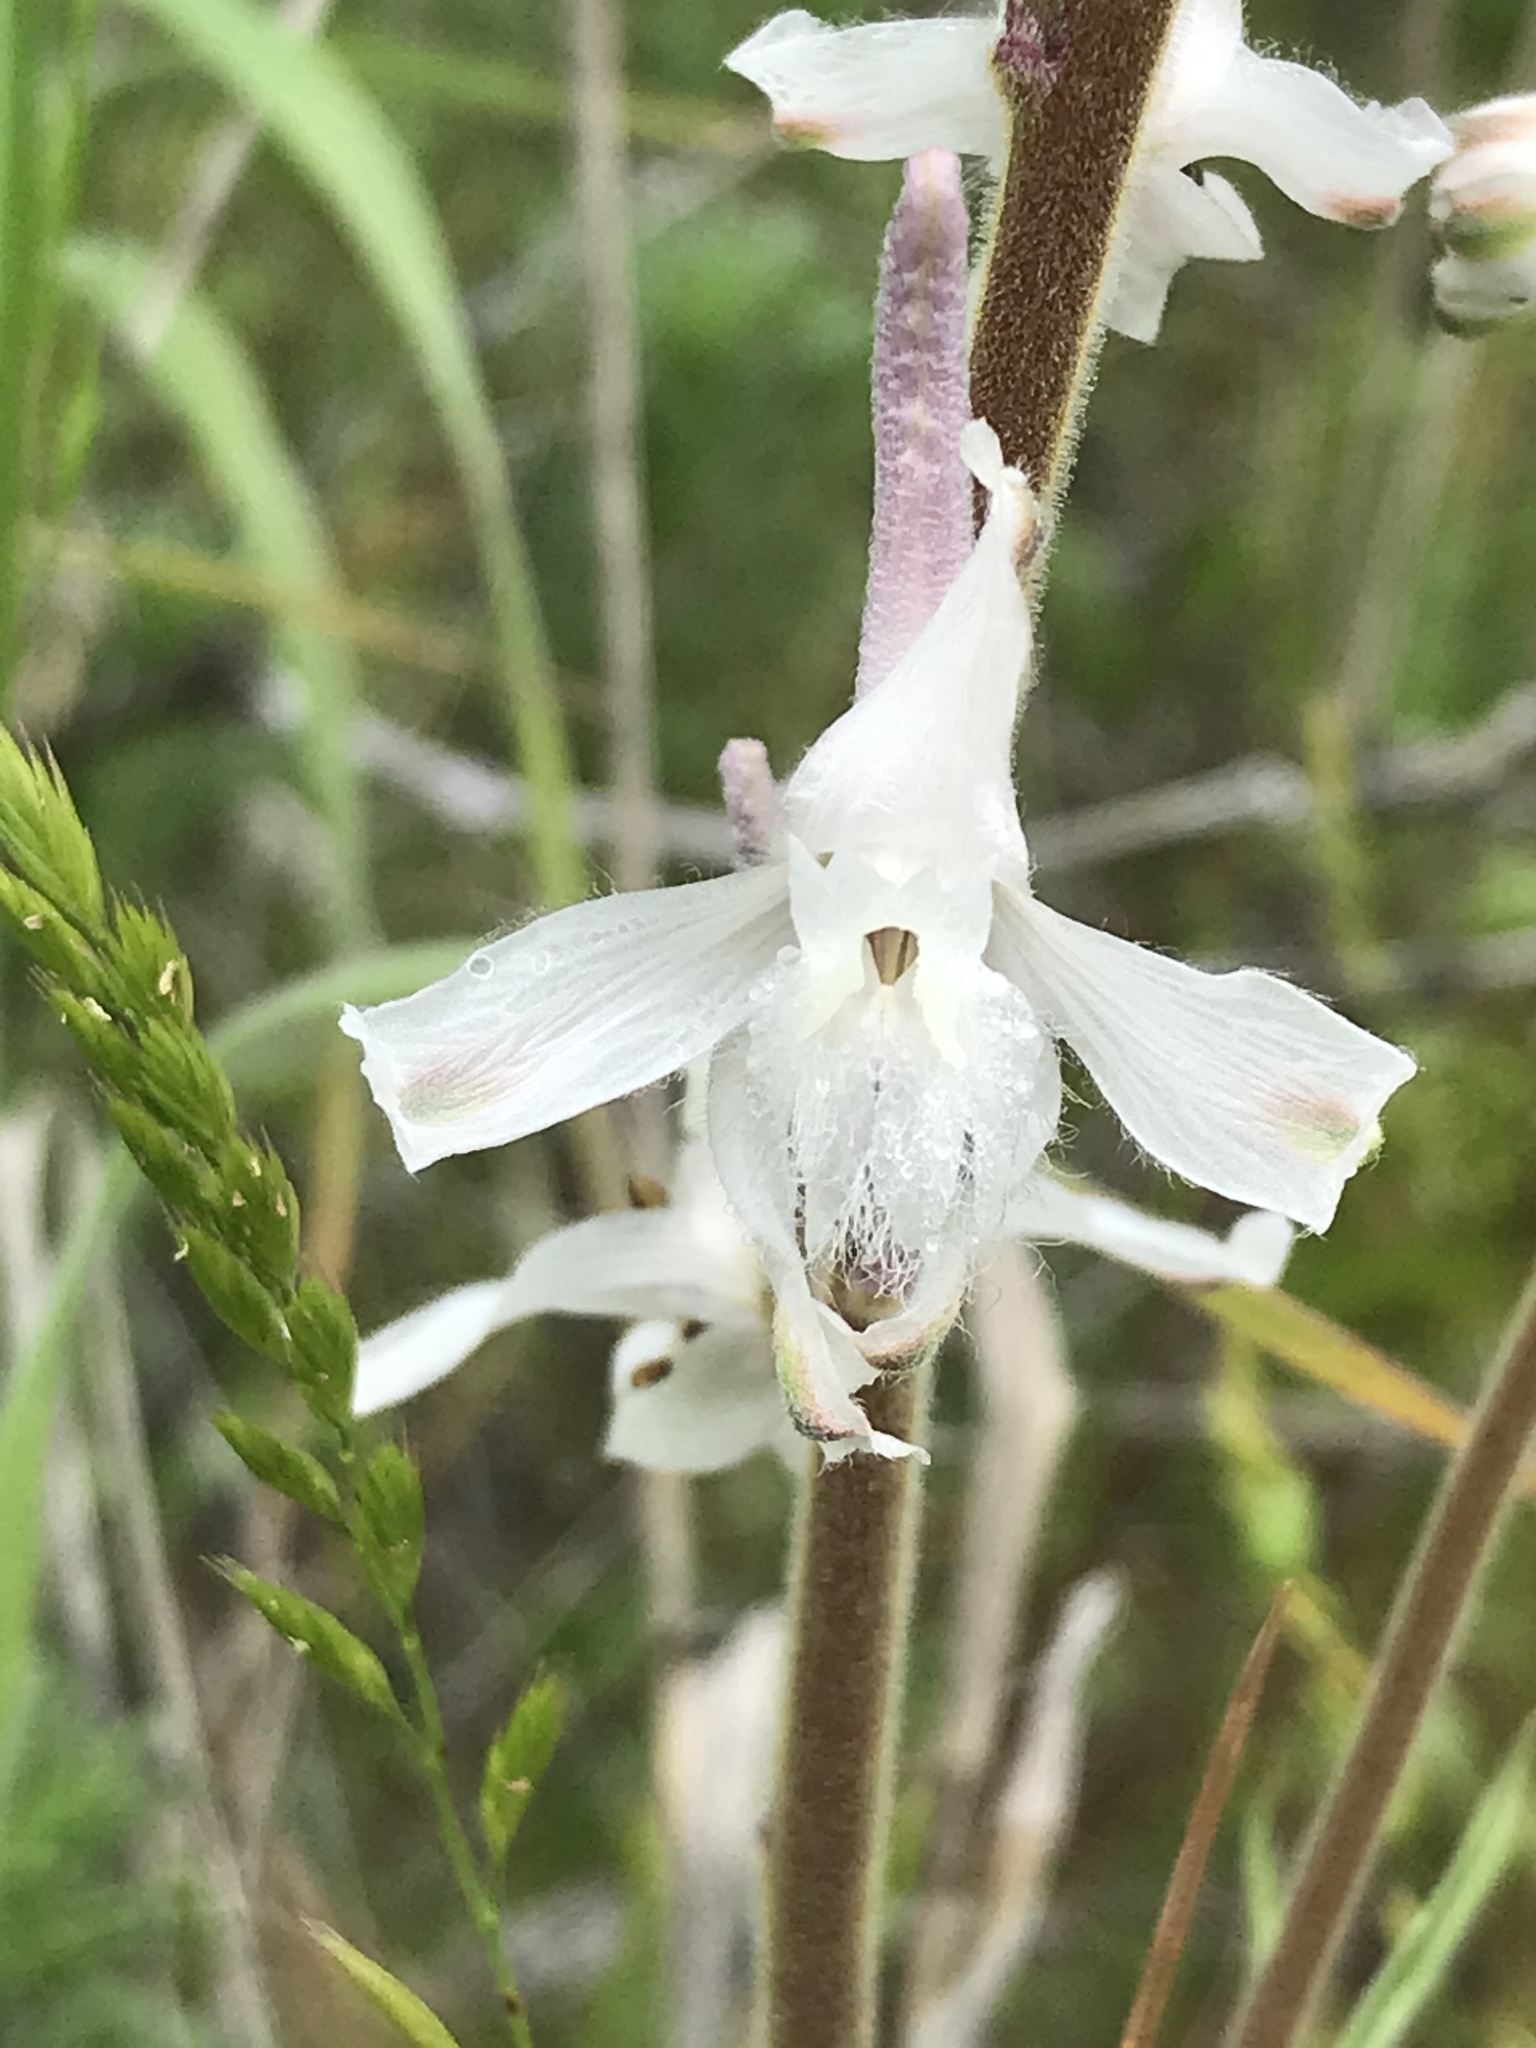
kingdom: Plantae
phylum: Tracheophyta
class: Magnoliopsida
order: Ranunculales
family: Ranunculaceae
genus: Delphinium
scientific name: Delphinium carolinianum
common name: Carolina larkspur
